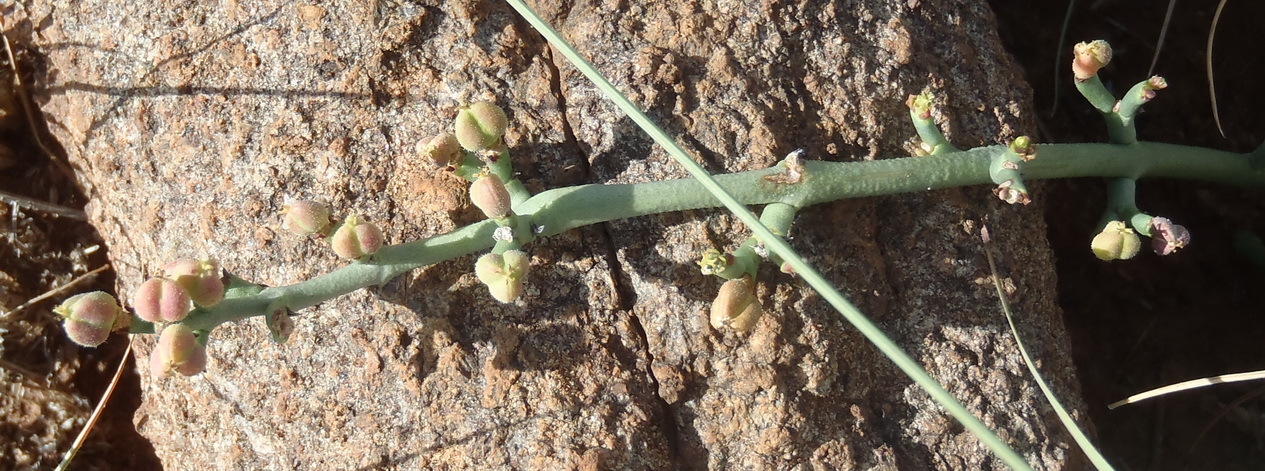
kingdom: Plantae
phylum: Tracheophyta
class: Magnoliopsida
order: Malpighiales
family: Euphorbiaceae
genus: Euphorbia
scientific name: Euphorbia caterviflora
